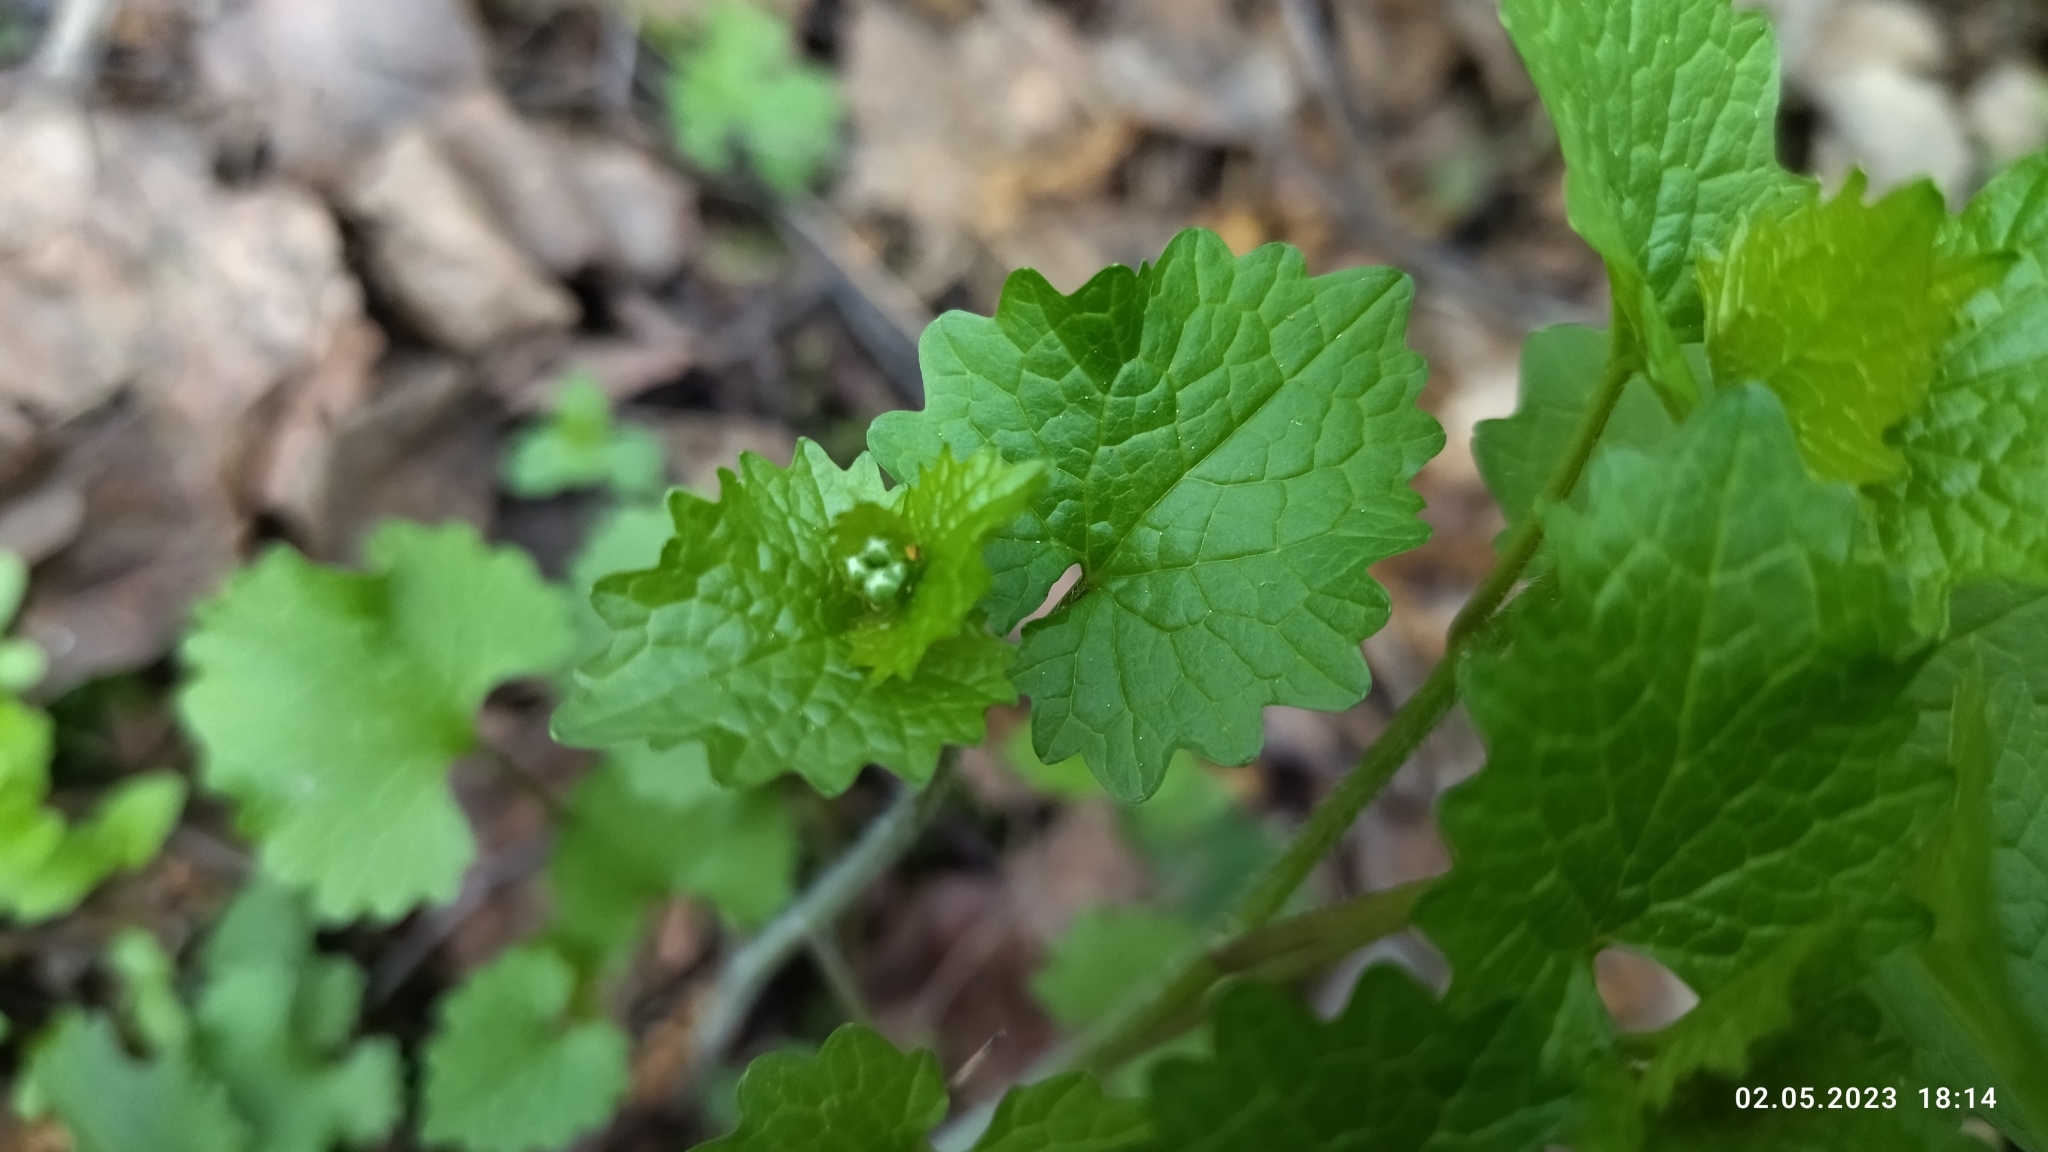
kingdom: Plantae
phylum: Tracheophyta
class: Magnoliopsida
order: Brassicales
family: Brassicaceae
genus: Alliaria
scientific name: Alliaria petiolata
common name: Garlic mustard
